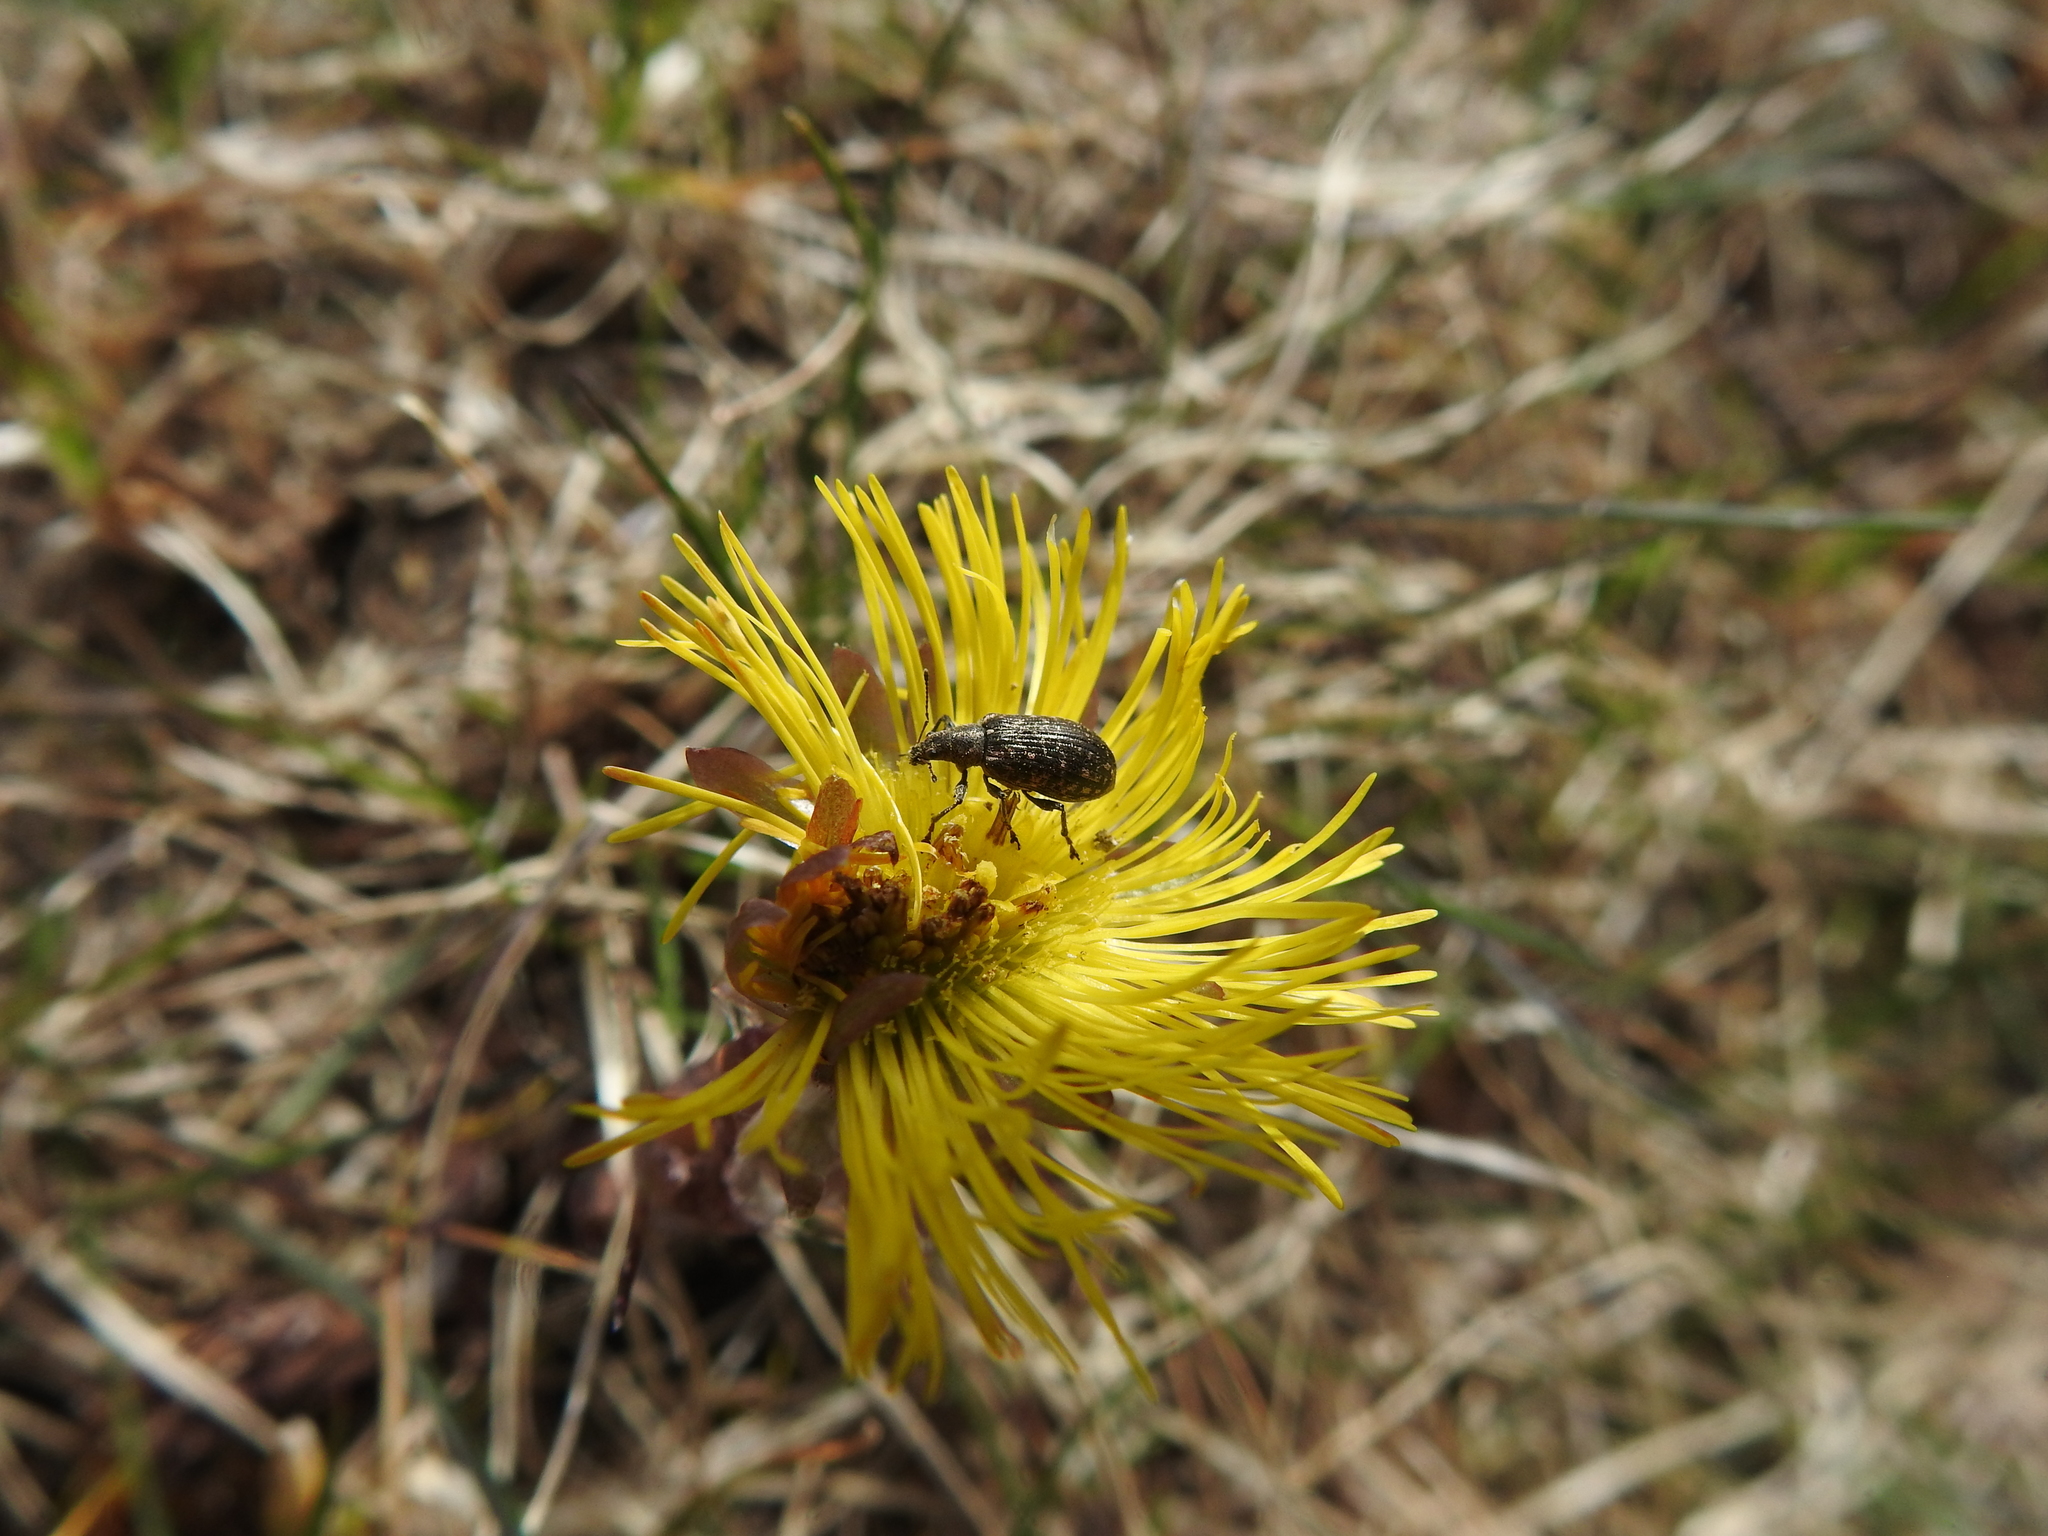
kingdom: Animalia
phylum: Arthropoda
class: Insecta
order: Coleoptera
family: Curculionidae
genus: Polydrusus
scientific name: Polydrusus pilosus
